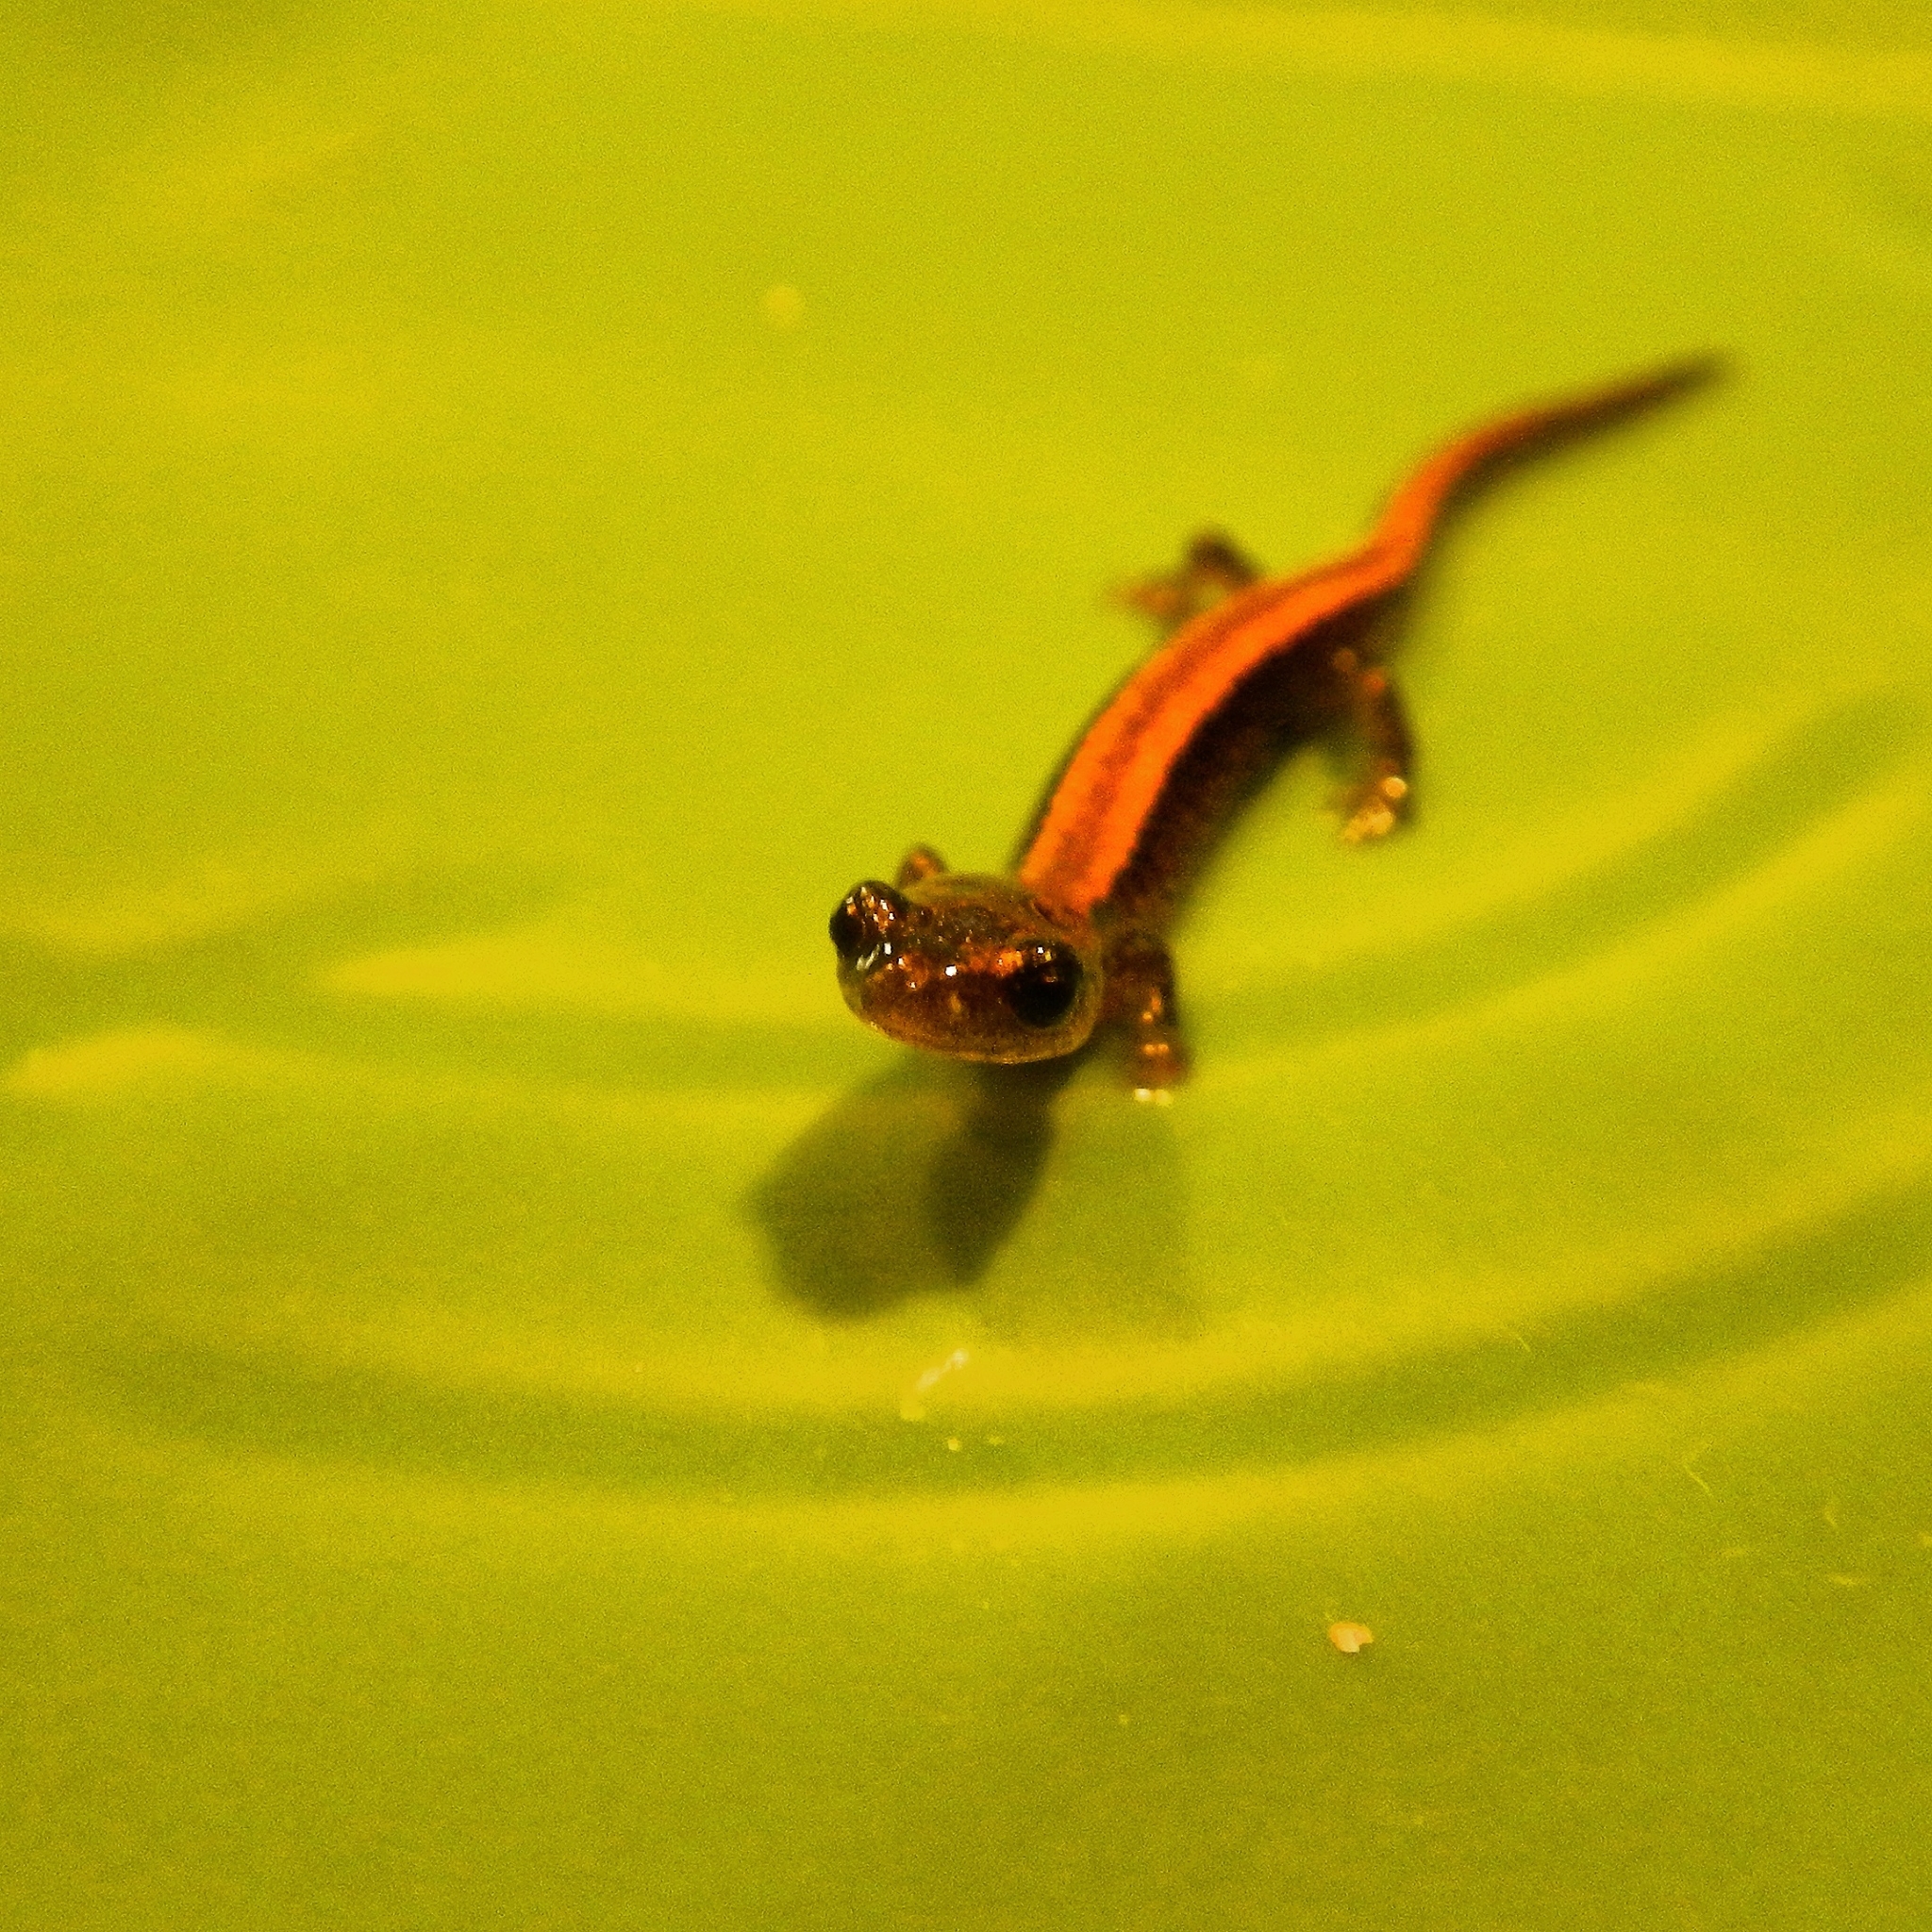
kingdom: Animalia
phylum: Chordata
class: Amphibia
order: Caudata
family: Plethodontidae
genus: Plethodon
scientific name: Plethodon cinereus
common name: Redback salamander
